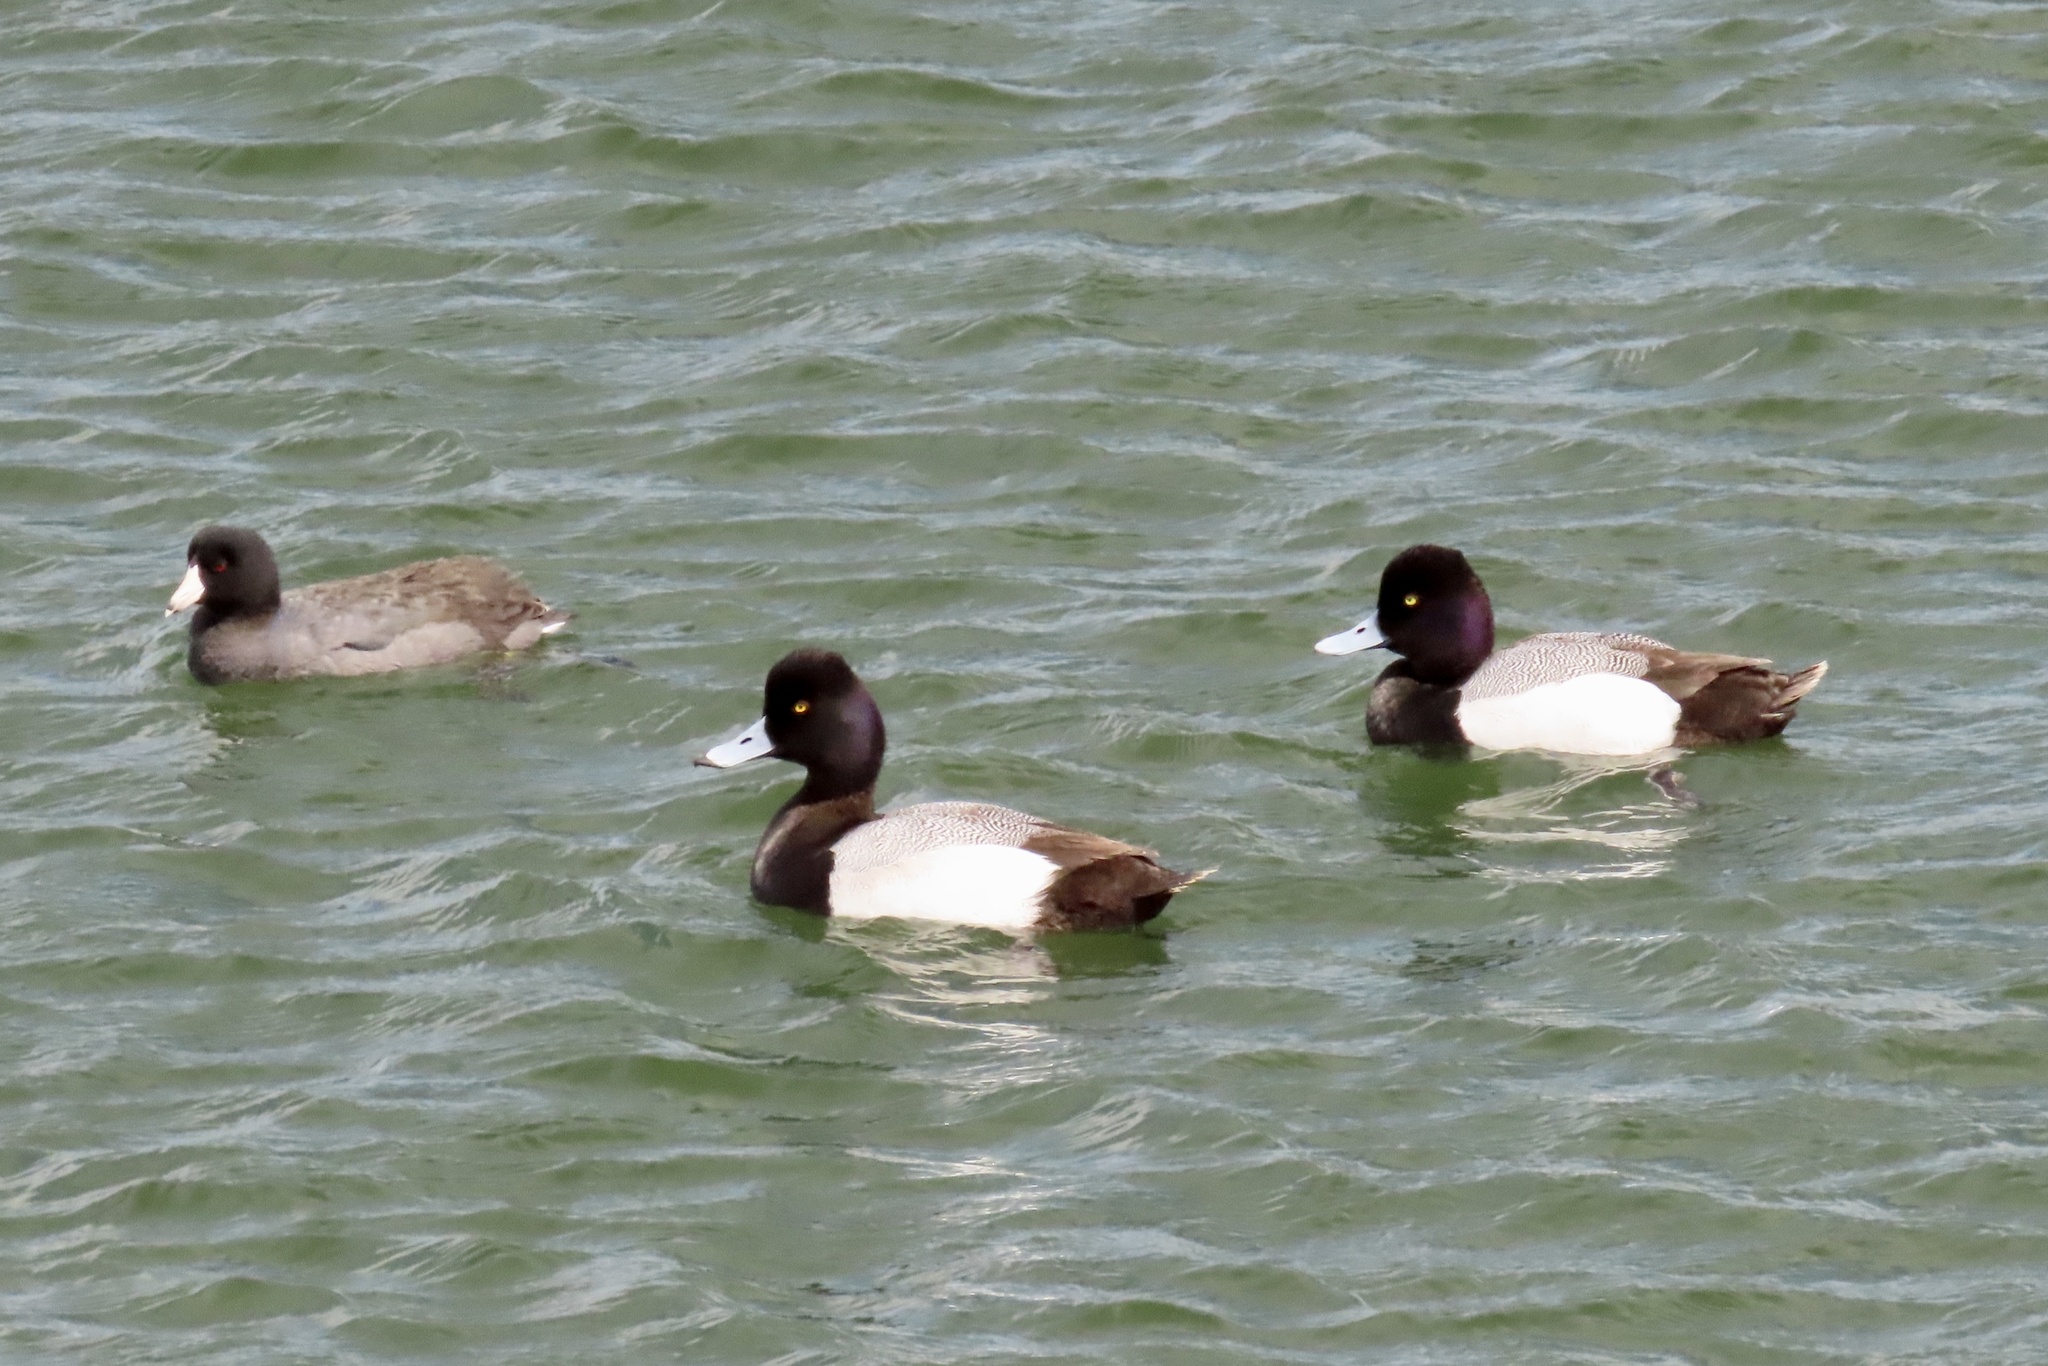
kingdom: Animalia
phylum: Chordata
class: Aves
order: Anseriformes
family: Anatidae
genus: Aythya
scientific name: Aythya affinis
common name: Lesser scaup
